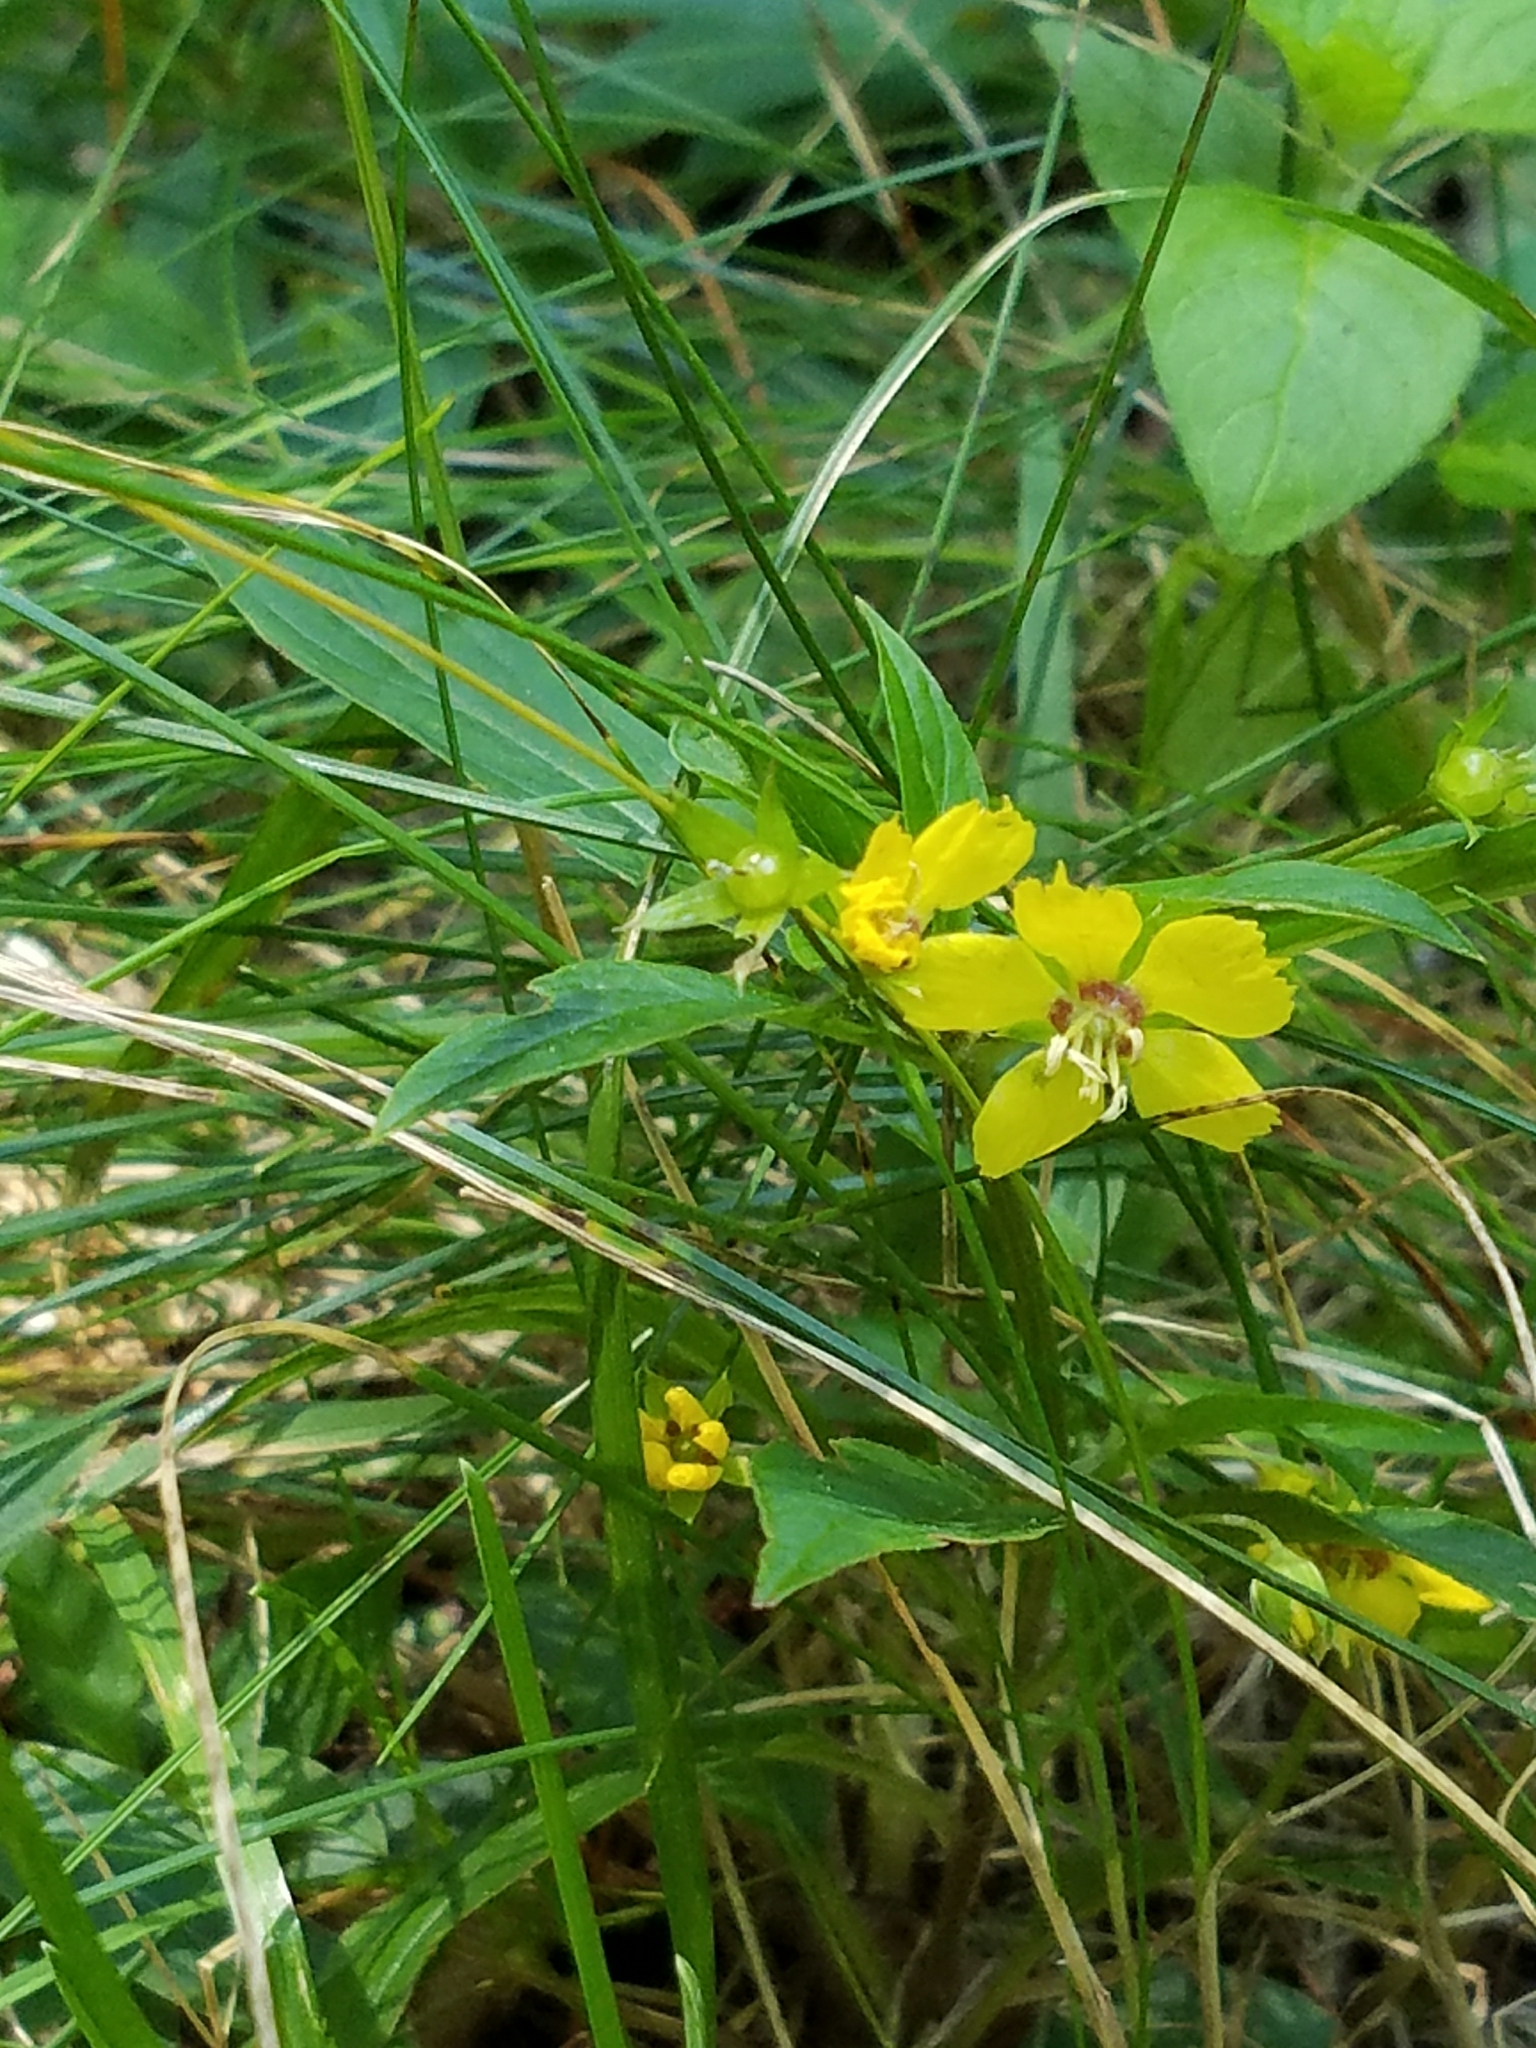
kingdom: Plantae
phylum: Tracheophyta
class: Magnoliopsida
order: Ericales
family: Primulaceae
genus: Lysimachia
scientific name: Lysimachia ciliata
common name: Fringed loosestrife
